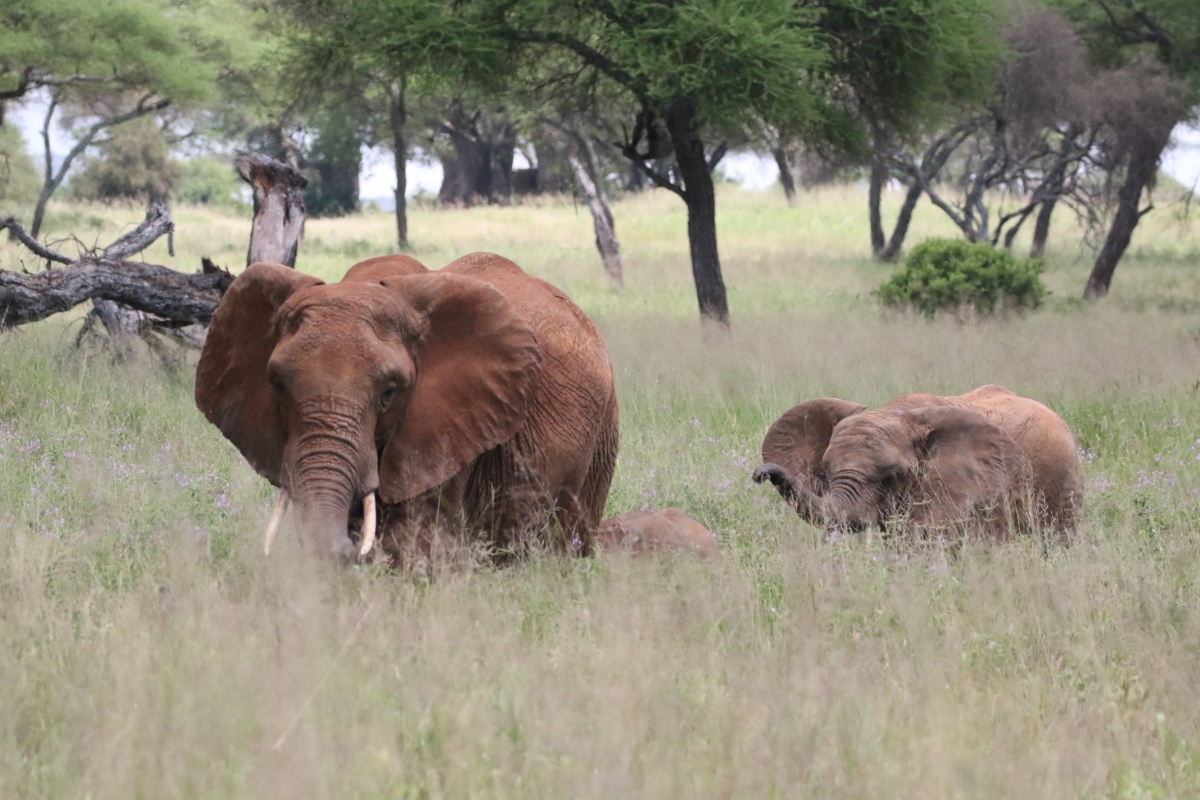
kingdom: Animalia
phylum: Chordata
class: Mammalia
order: Proboscidea
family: Elephantidae
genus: Loxodonta
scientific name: Loxodonta africana
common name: African elephant
